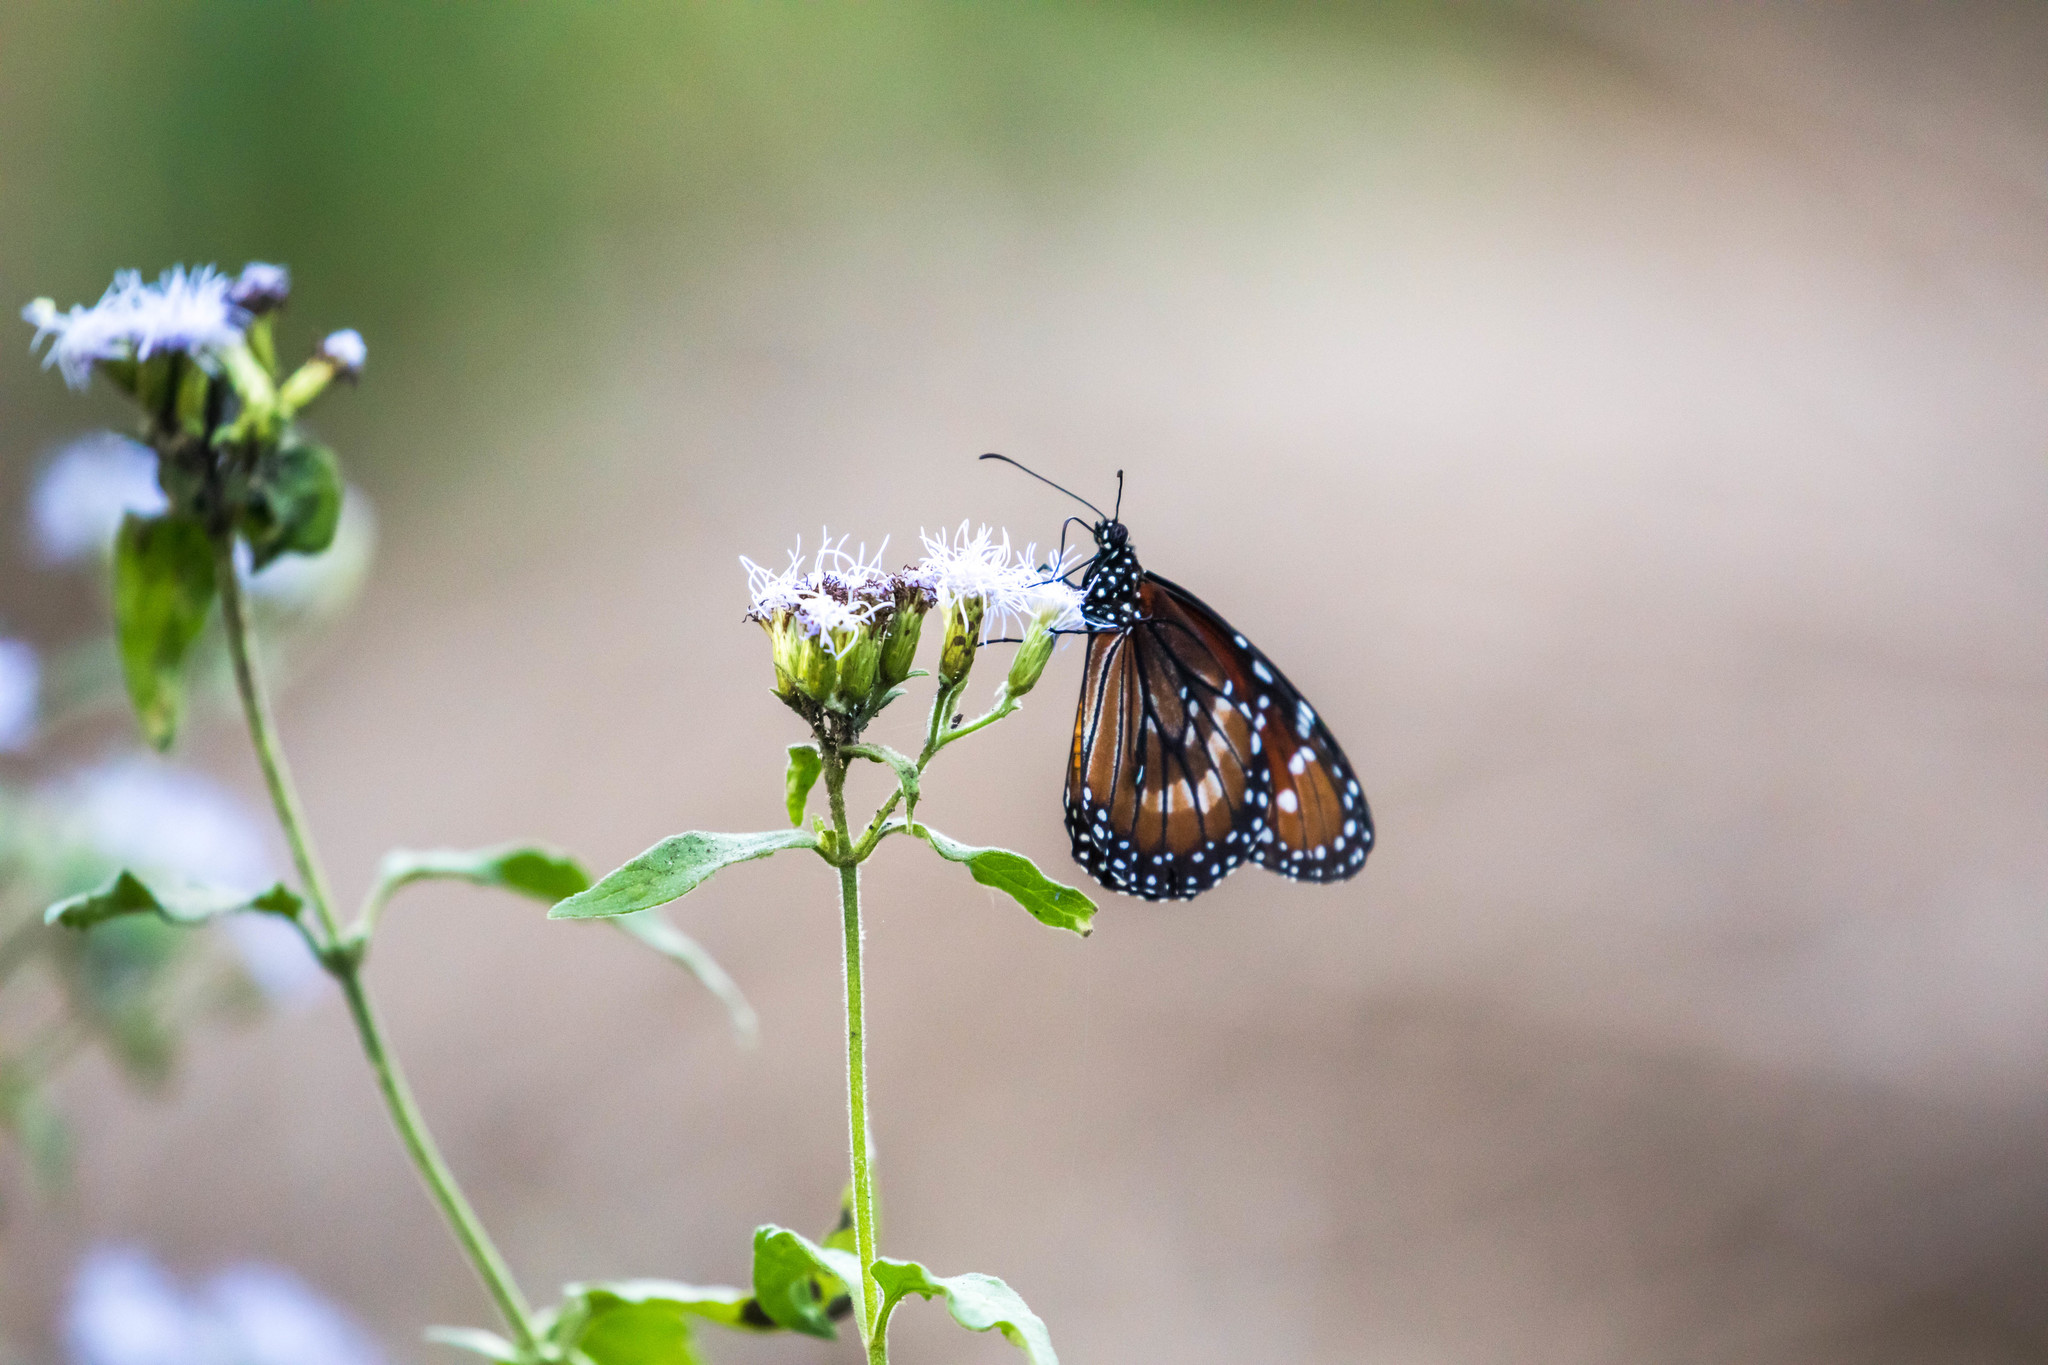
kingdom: Animalia
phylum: Arthropoda
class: Insecta
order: Lepidoptera
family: Nymphalidae
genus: Danaus
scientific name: Danaus eresimus
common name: Soldier
